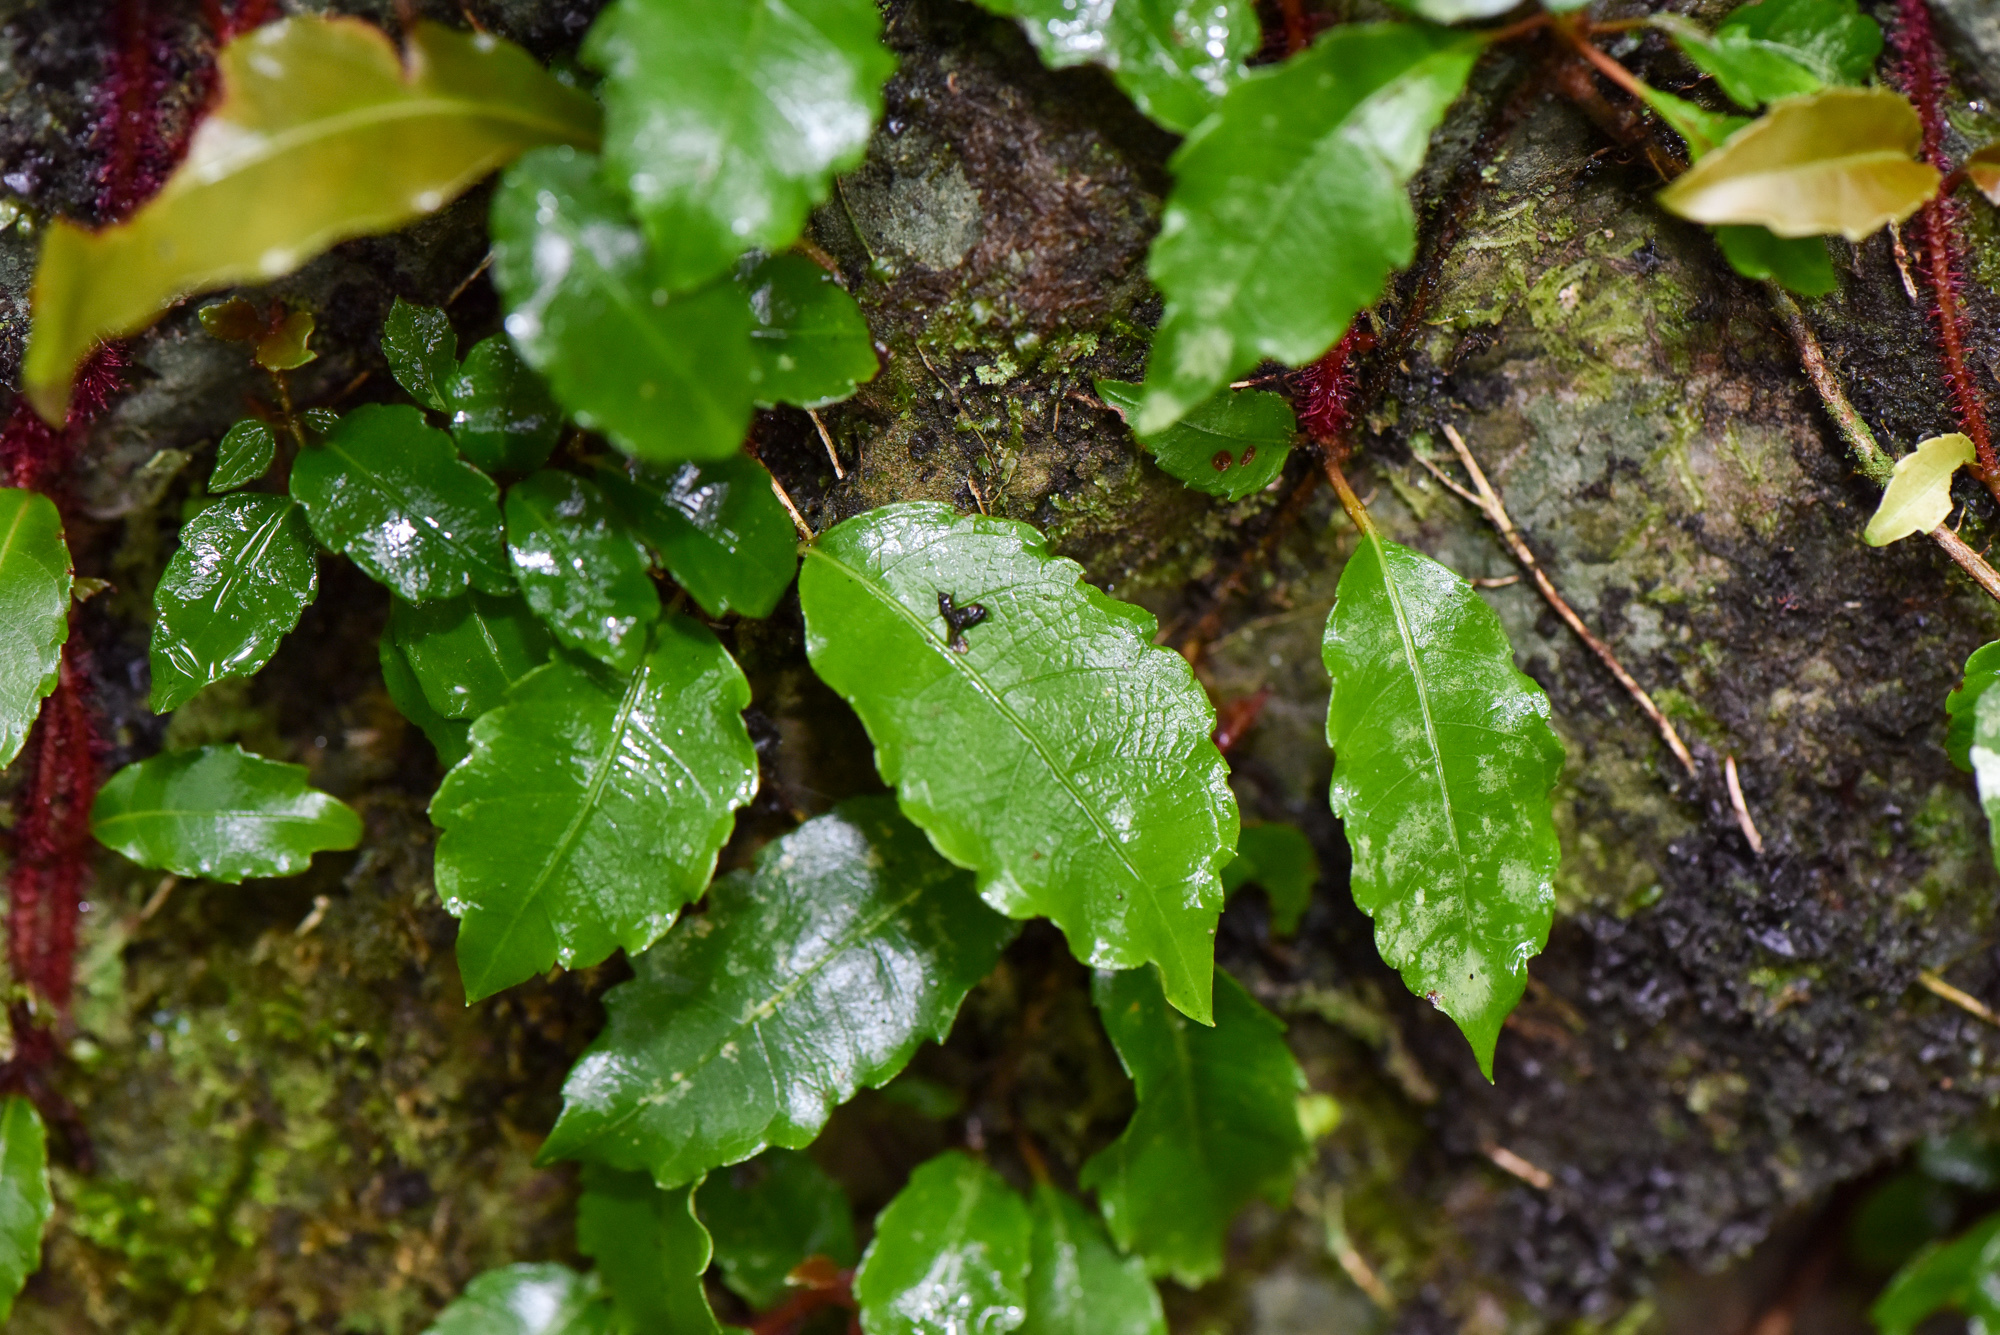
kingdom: Plantae
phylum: Tracheophyta
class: Magnoliopsida
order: Cornales
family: Hydrangeaceae
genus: Hydrangea
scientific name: Hydrangea integrifolia
